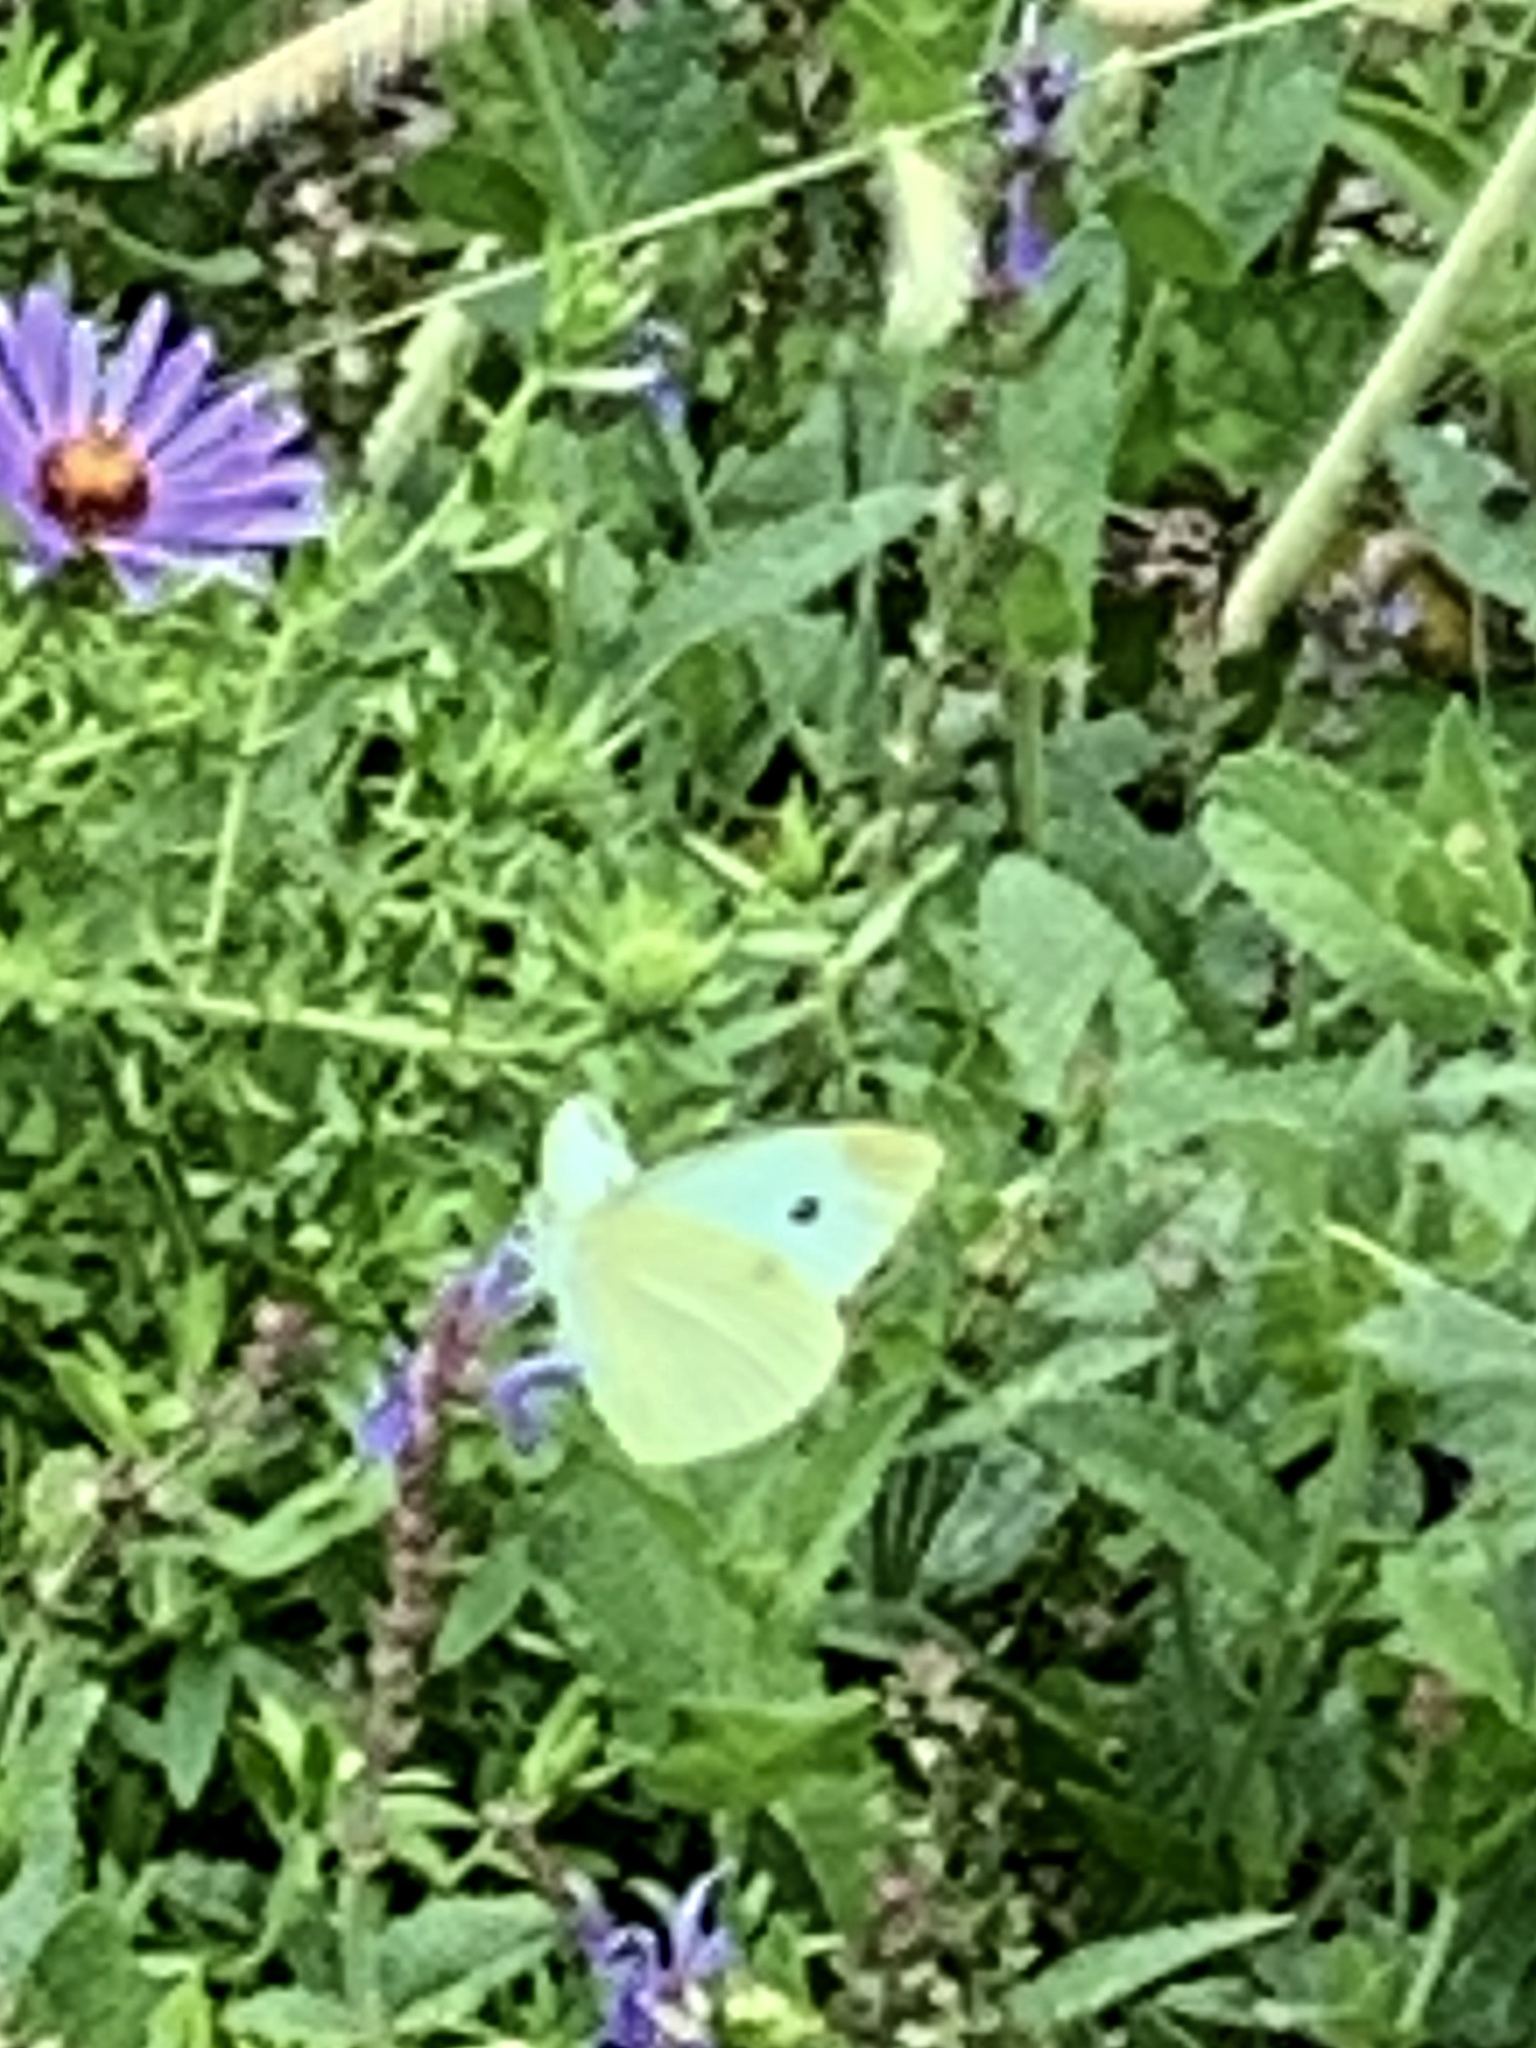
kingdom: Animalia
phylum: Arthropoda
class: Insecta
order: Lepidoptera
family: Pieridae
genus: Pieris
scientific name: Pieris rapae
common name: Small white
